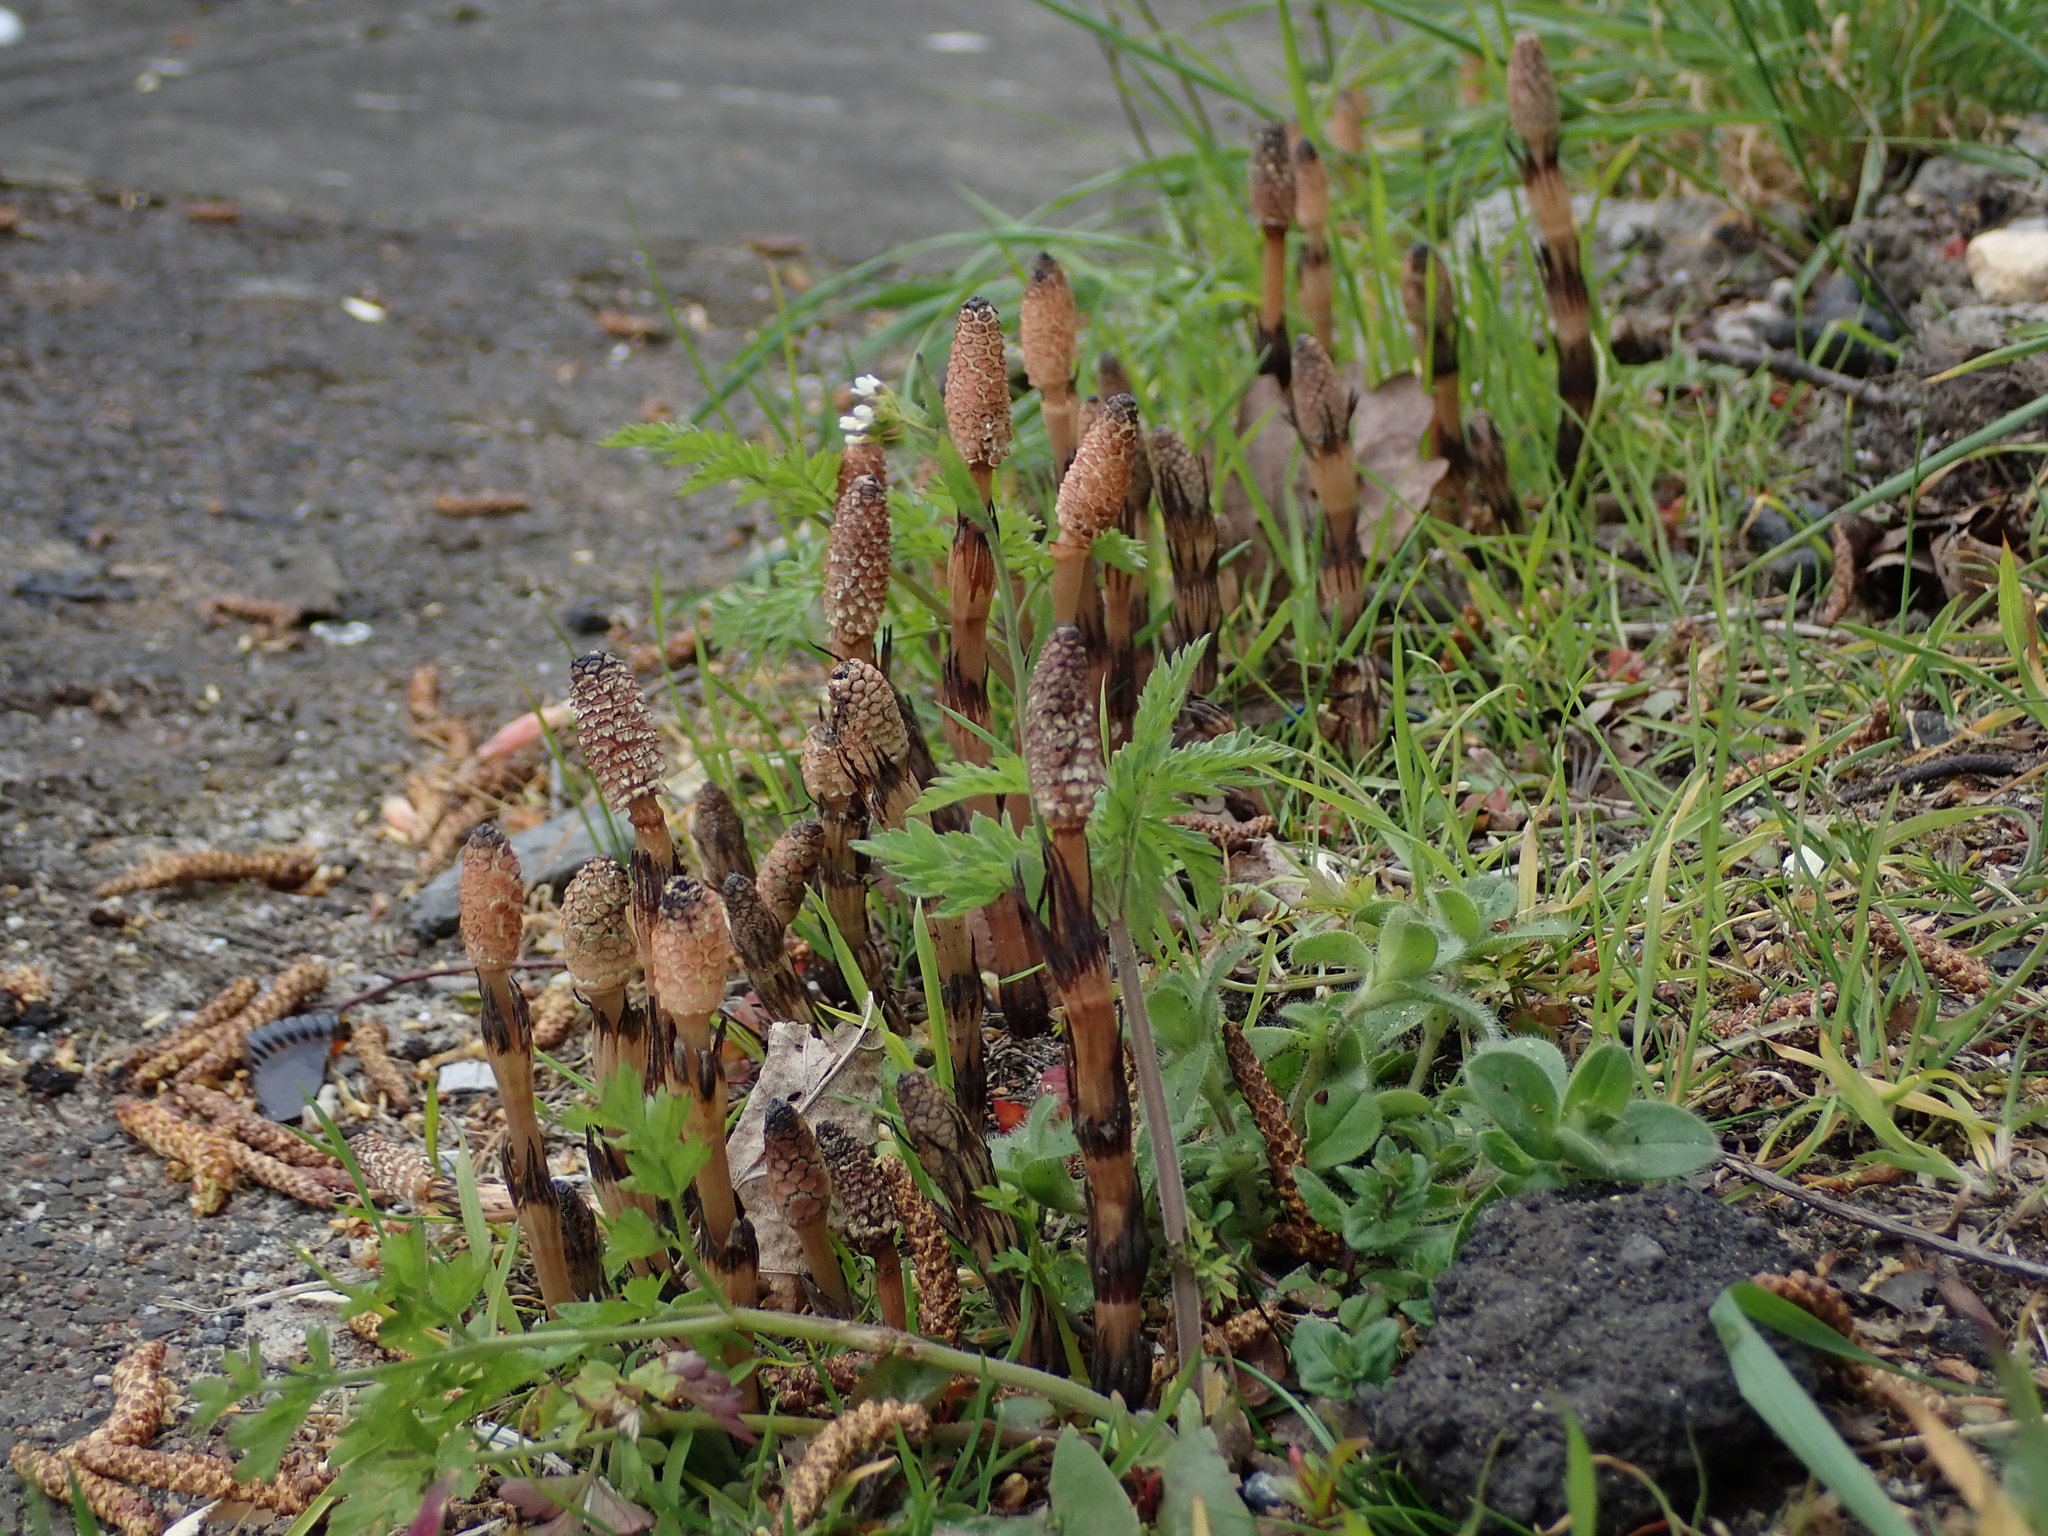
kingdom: Plantae
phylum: Tracheophyta
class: Polypodiopsida
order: Equisetales
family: Equisetaceae
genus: Equisetum
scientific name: Equisetum arvense
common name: Field horsetail
